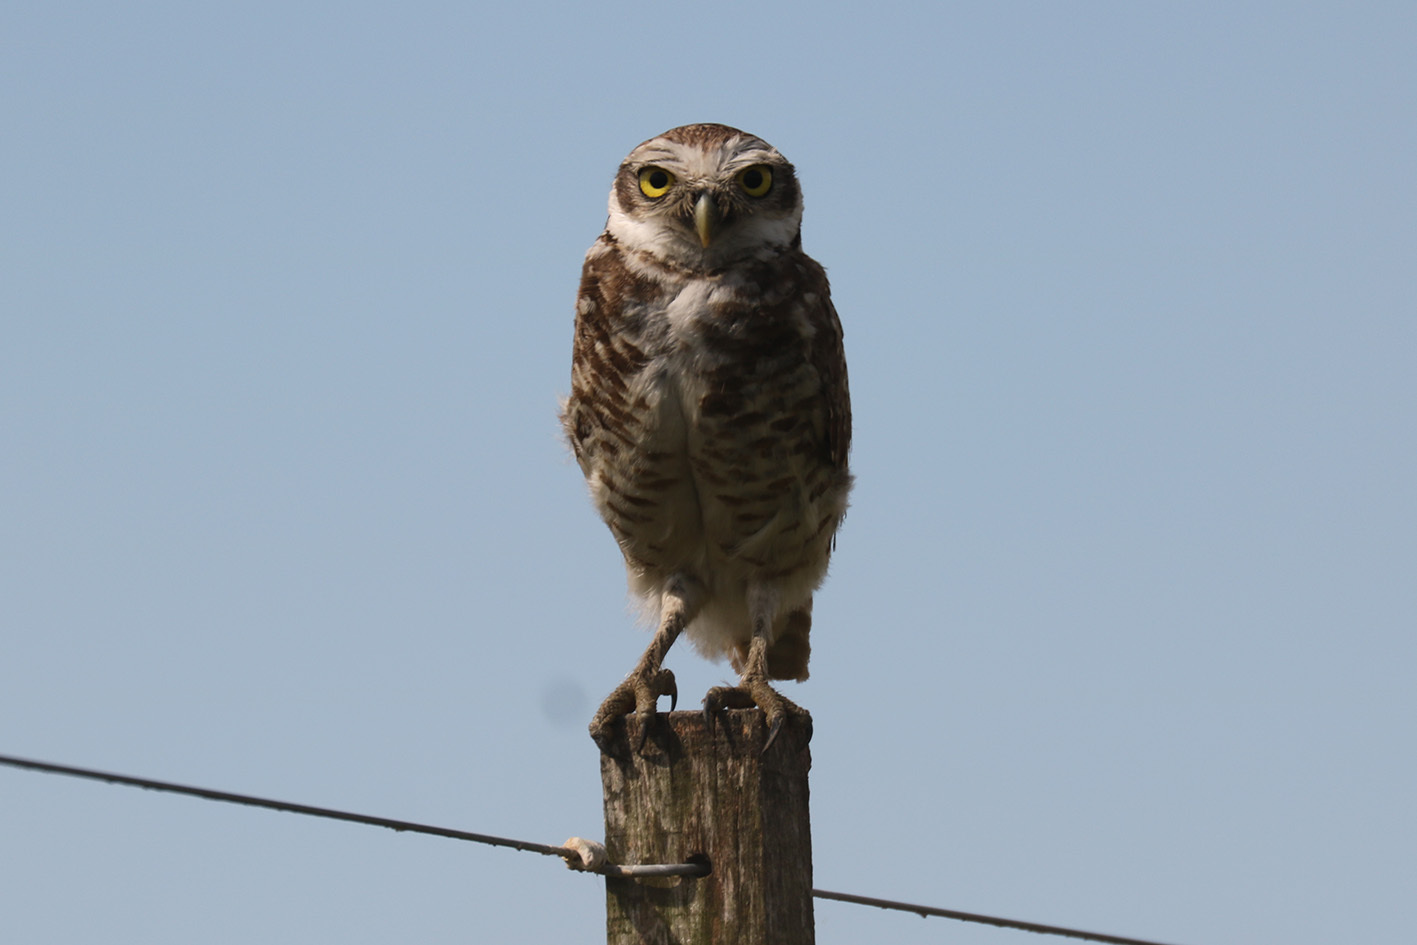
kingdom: Animalia
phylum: Chordata
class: Aves
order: Strigiformes
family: Strigidae
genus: Athene
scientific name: Athene cunicularia
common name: Burrowing owl
